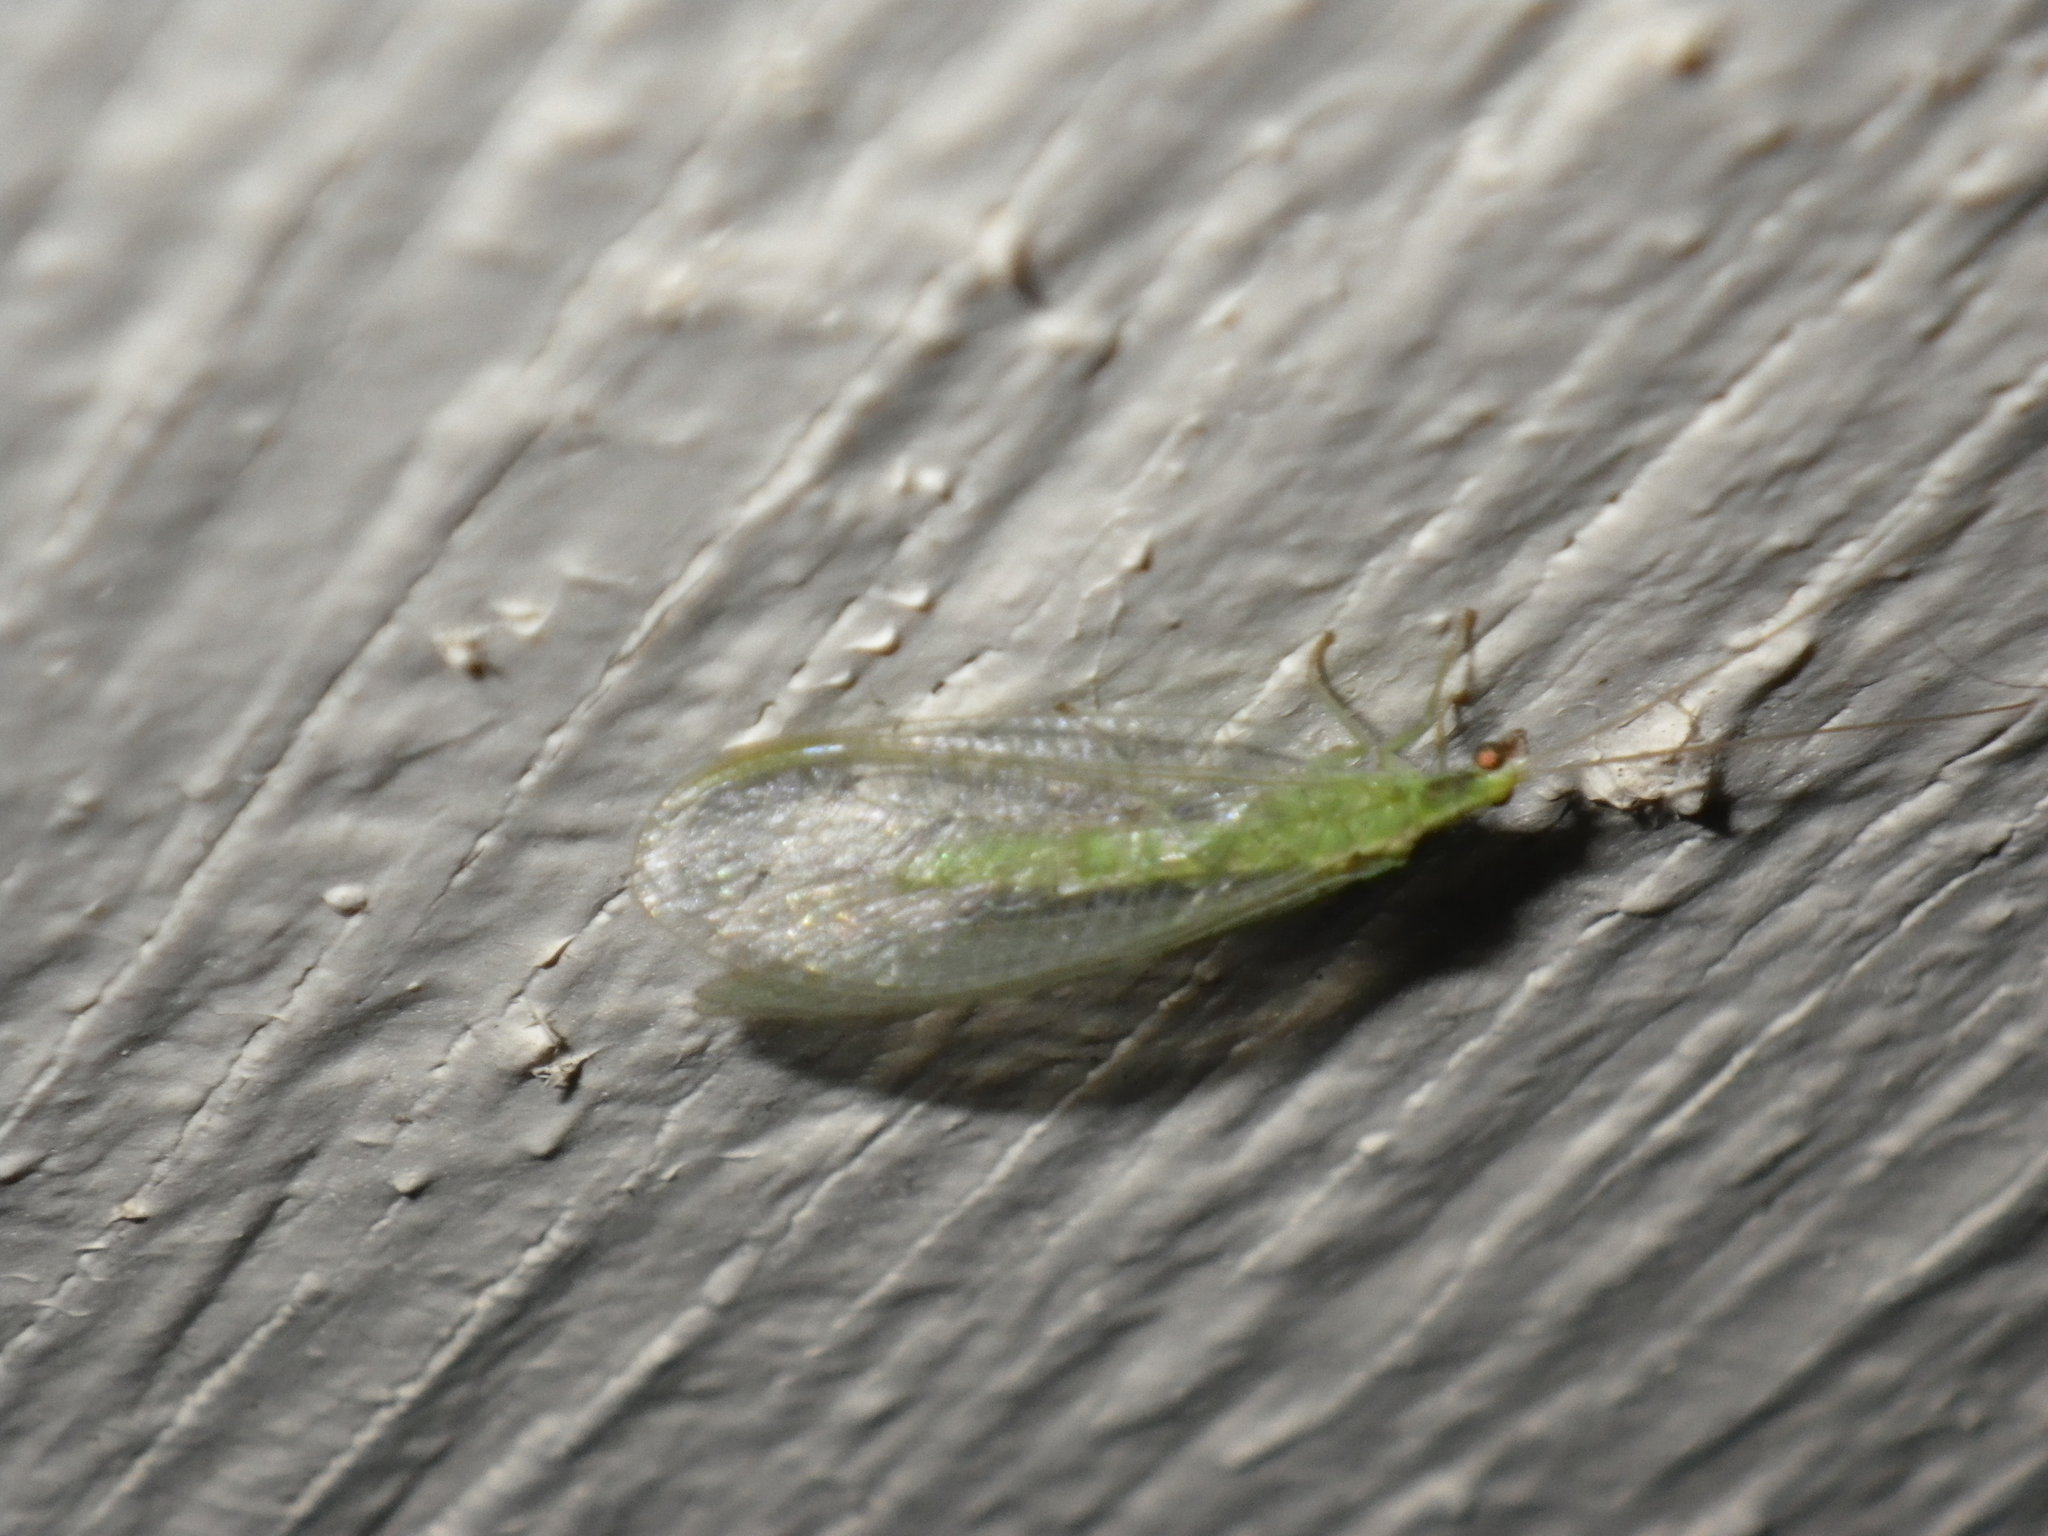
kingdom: Animalia
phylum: Arthropoda
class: Insecta
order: Neuroptera
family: Chrysopidae
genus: Chrysoperla
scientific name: Chrysoperla
